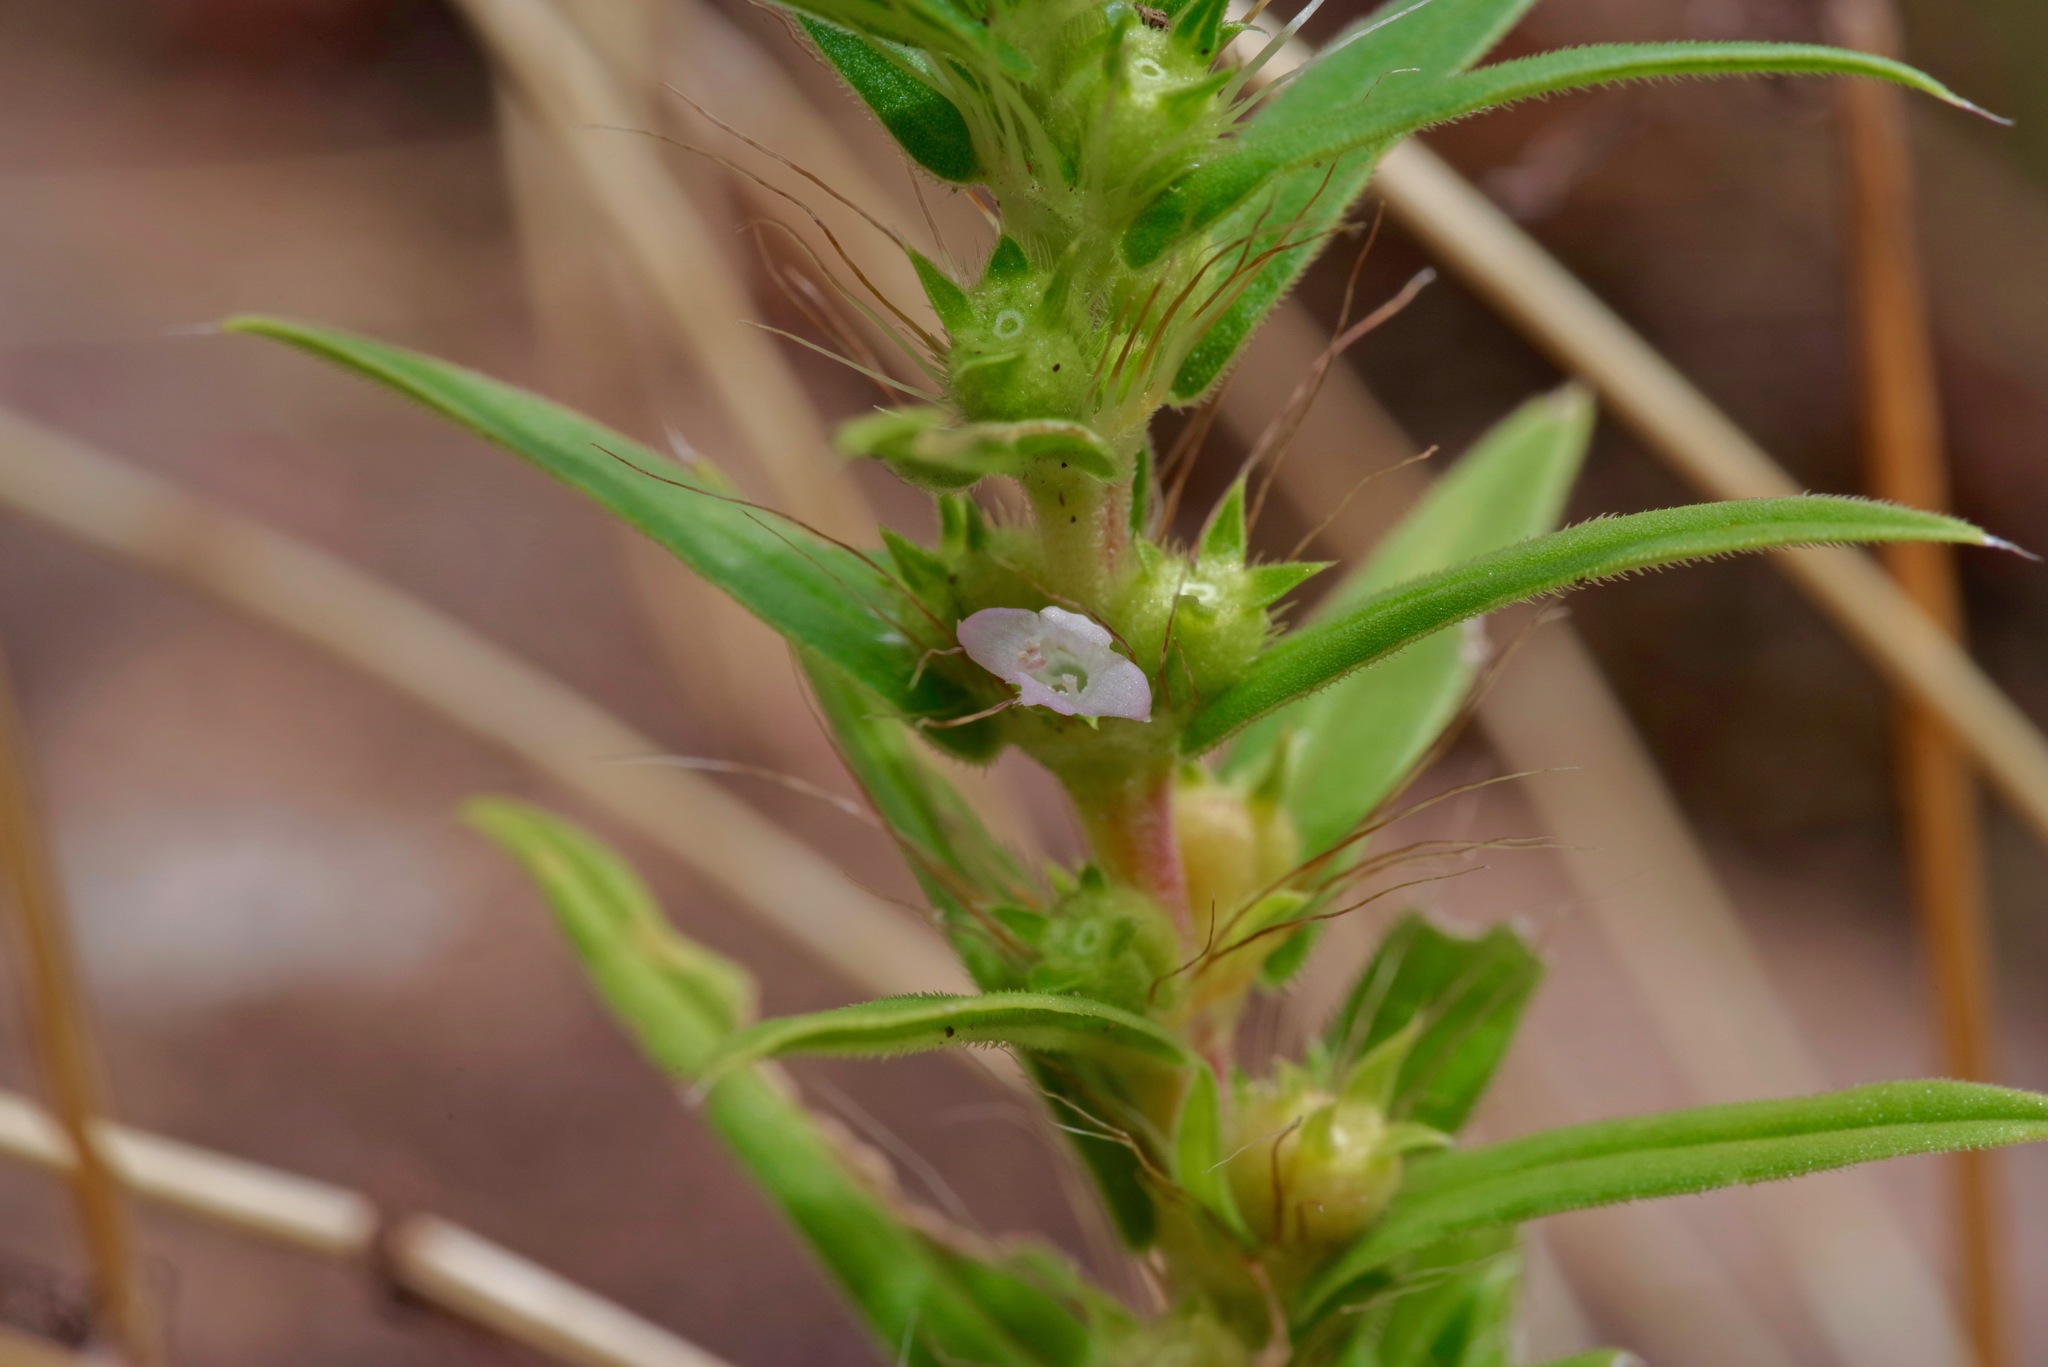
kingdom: Plantae
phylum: Tracheophyta
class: Magnoliopsida
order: Gentianales
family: Rubiaceae
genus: Hexasepalum
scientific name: Hexasepalum teres
